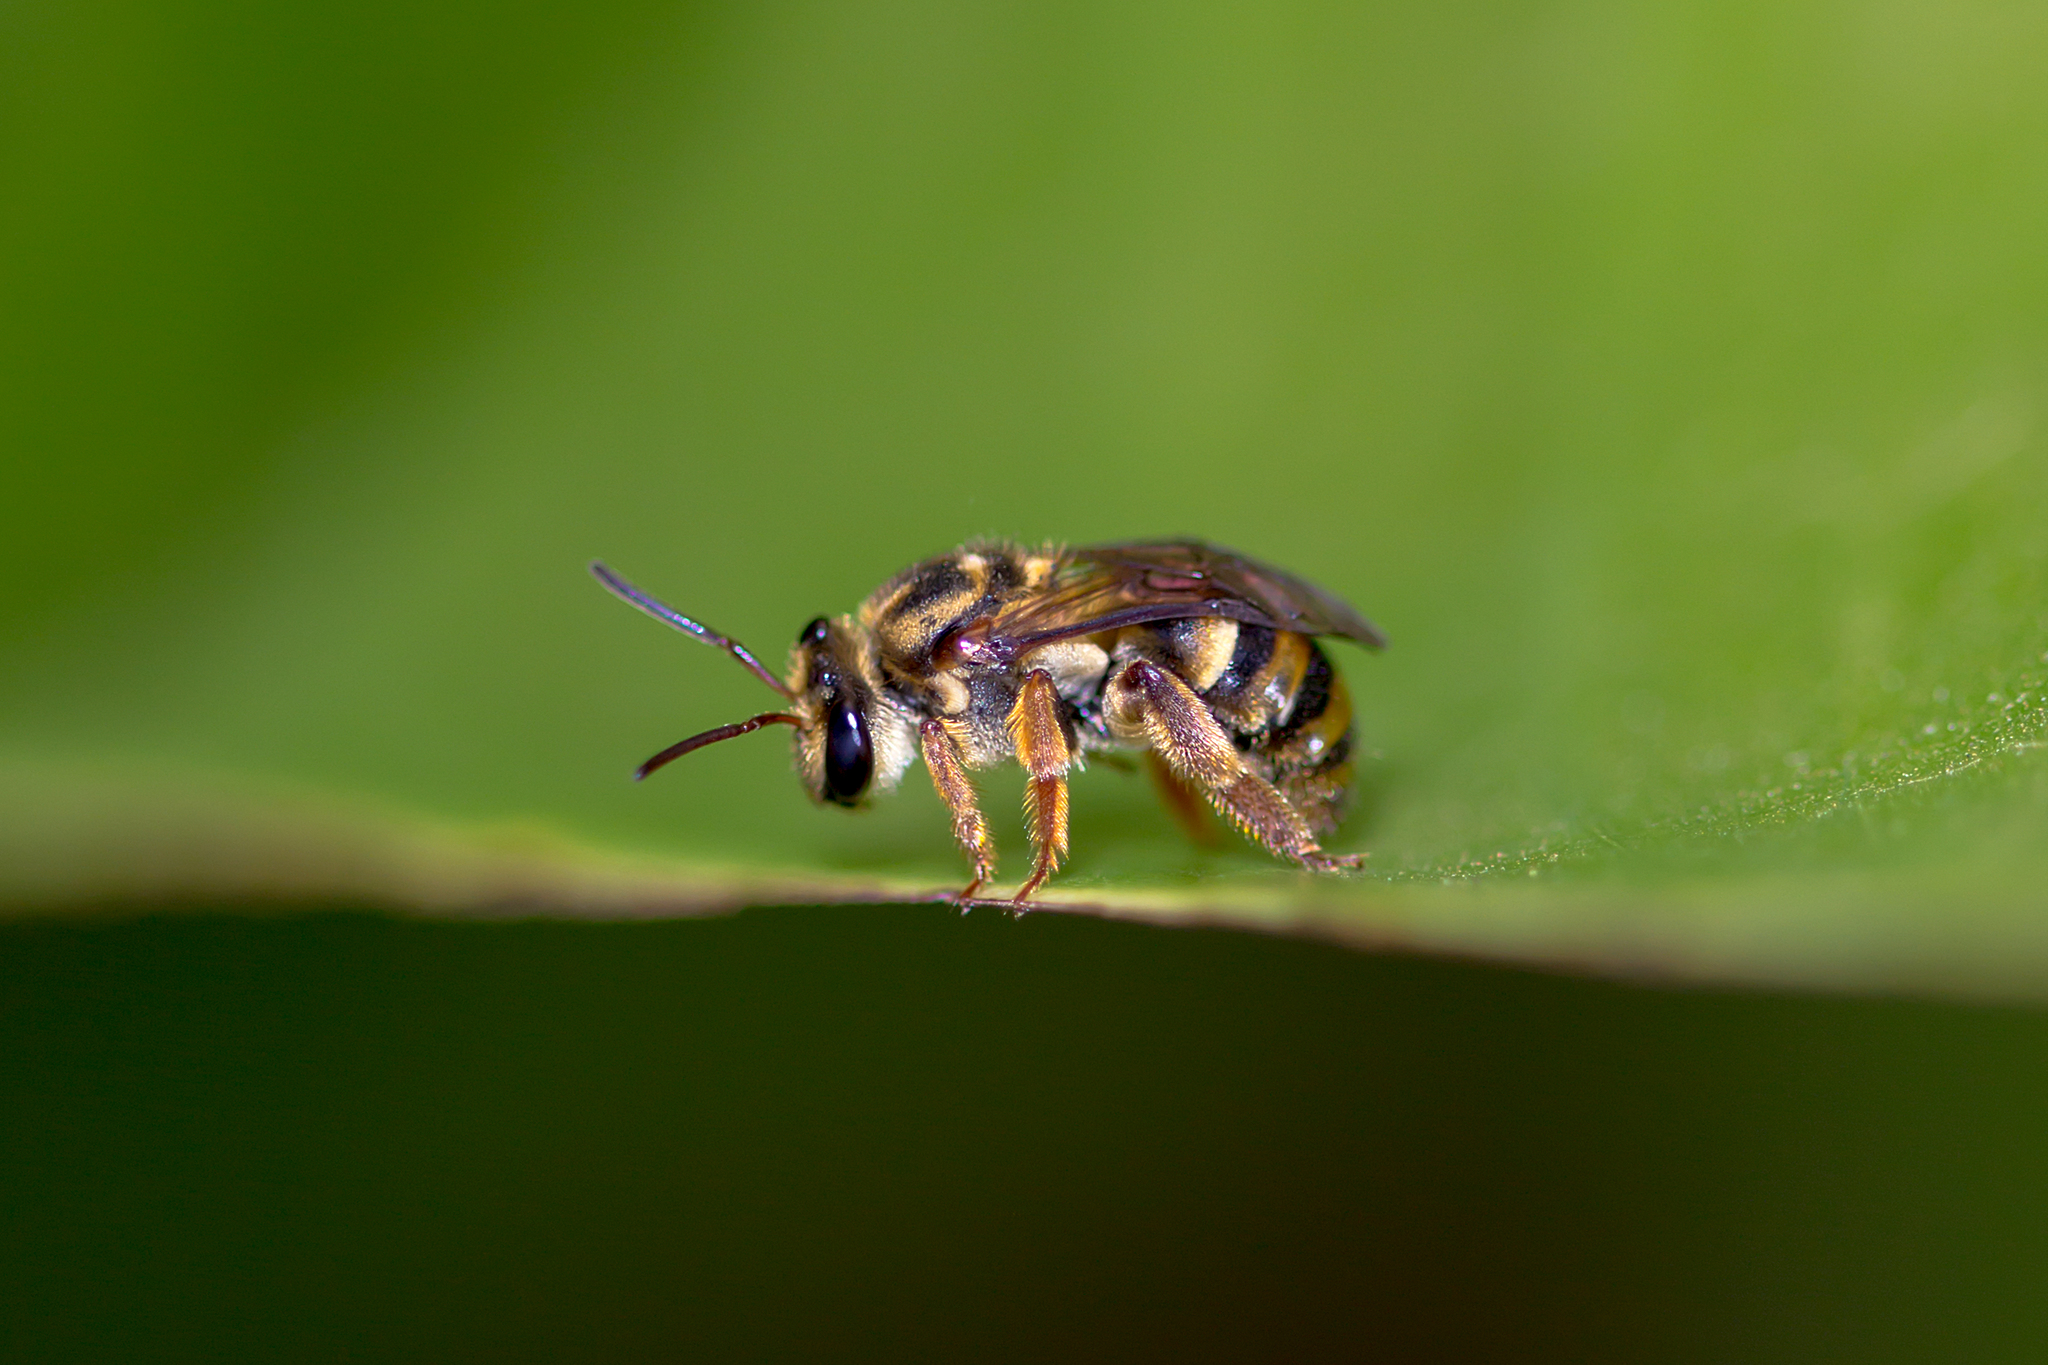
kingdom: Animalia
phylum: Arthropoda
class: Insecta
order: Hymenoptera
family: Halictidae
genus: Mellitidia
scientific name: Mellitidia tomentifera
